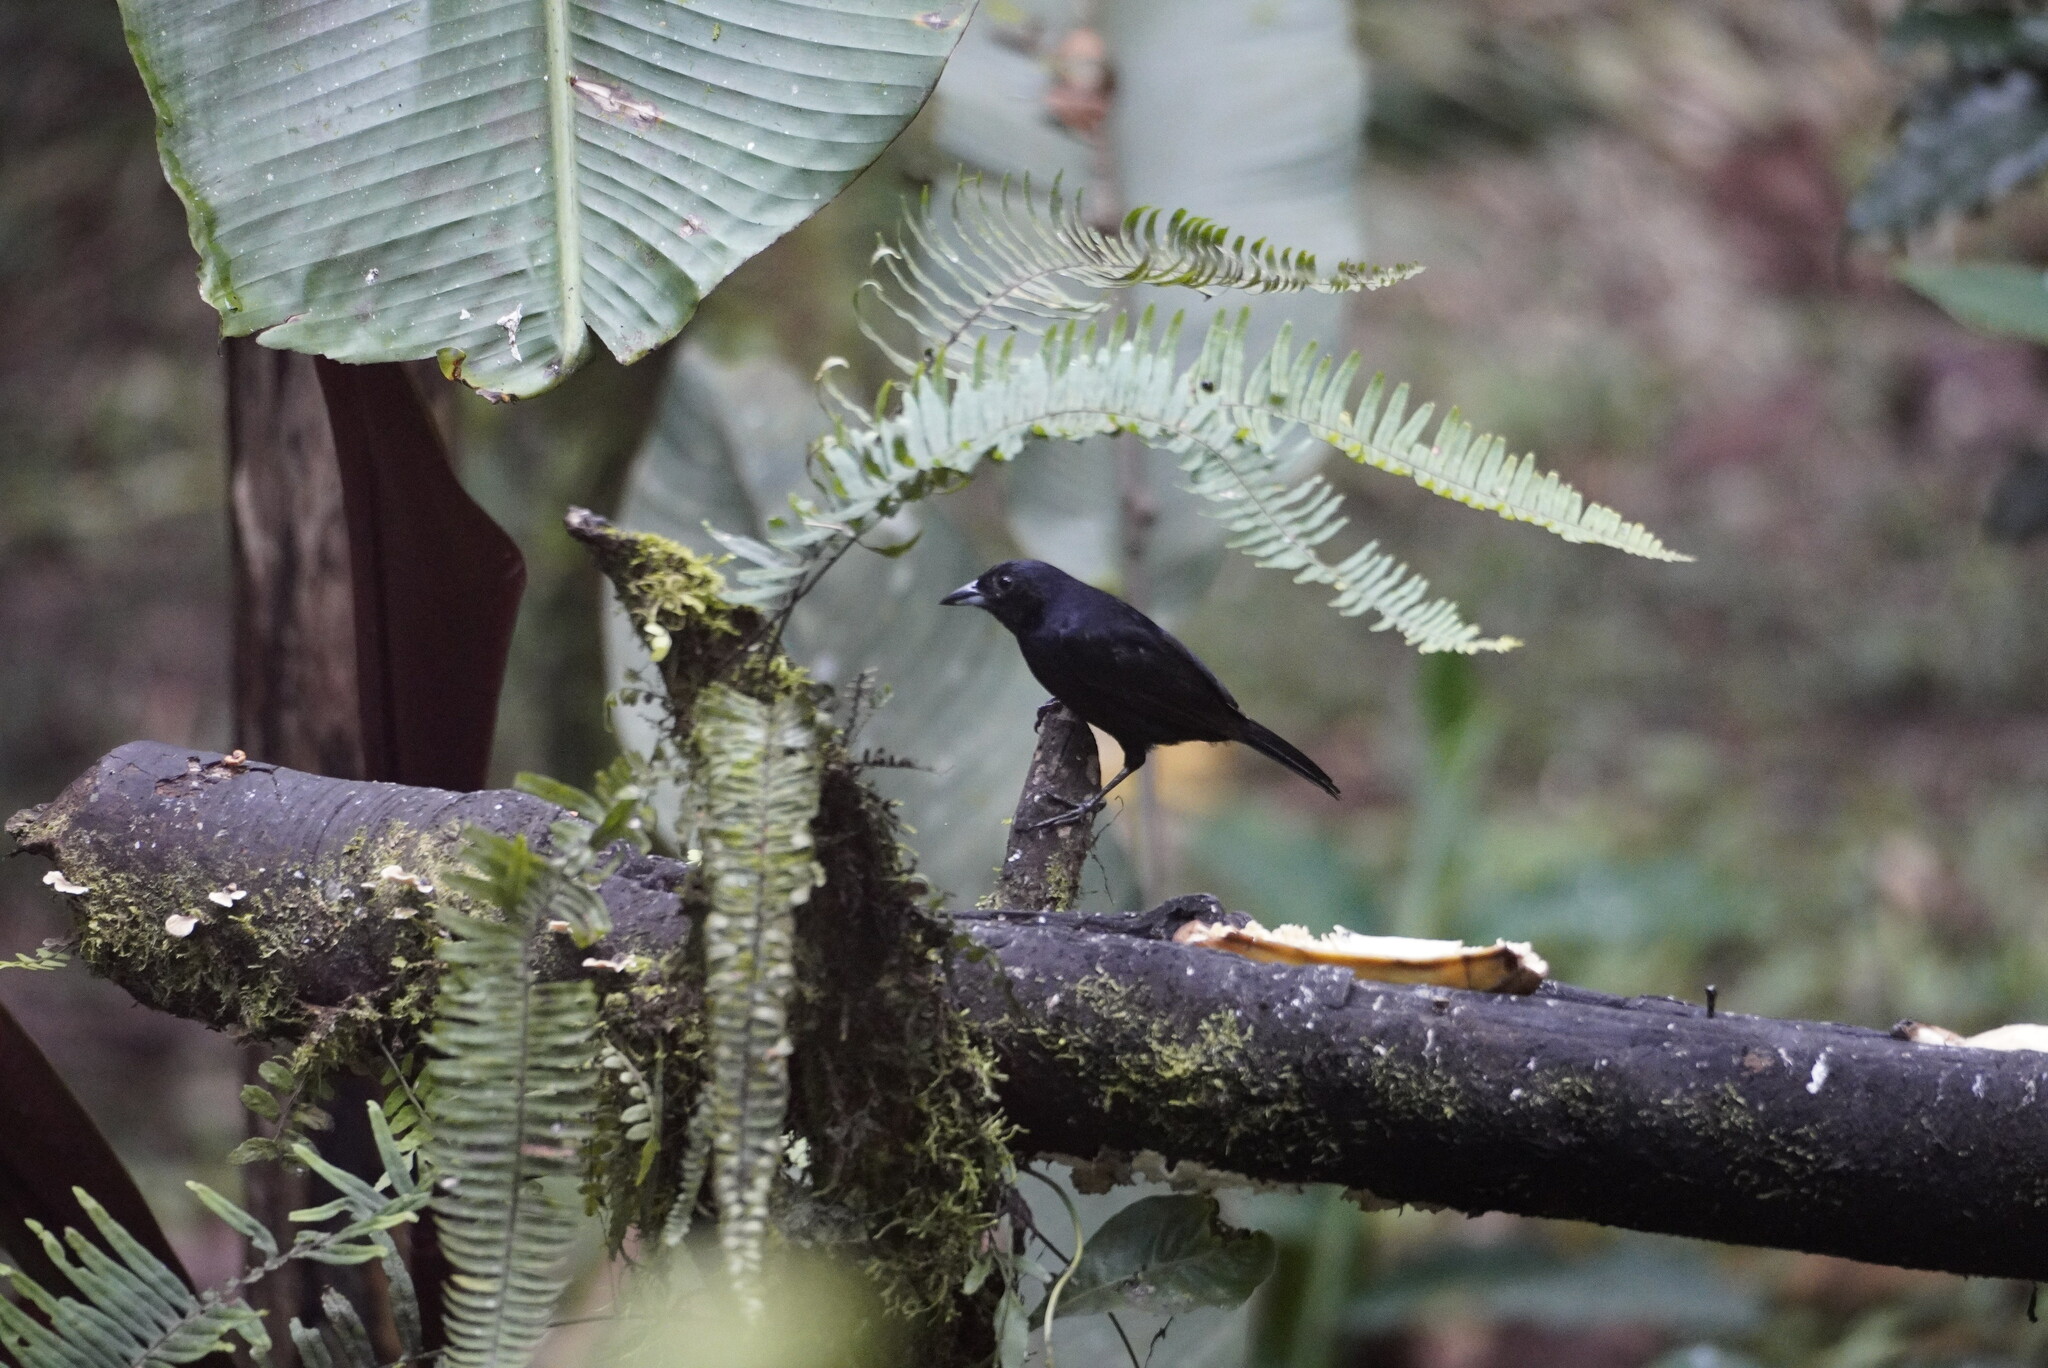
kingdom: Animalia
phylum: Chordata
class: Aves
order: Passeriformes
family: Thraupidae
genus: Tachyphonus
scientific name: Tachyphonus rufus
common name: White-lined tanager
